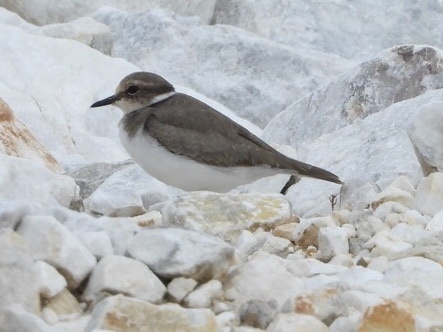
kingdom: Animalia
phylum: Chordata
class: Aves
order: Charadriiformes
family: Charadriidae
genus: Charadrius
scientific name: Charadrius placidus
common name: Long-billed plover
